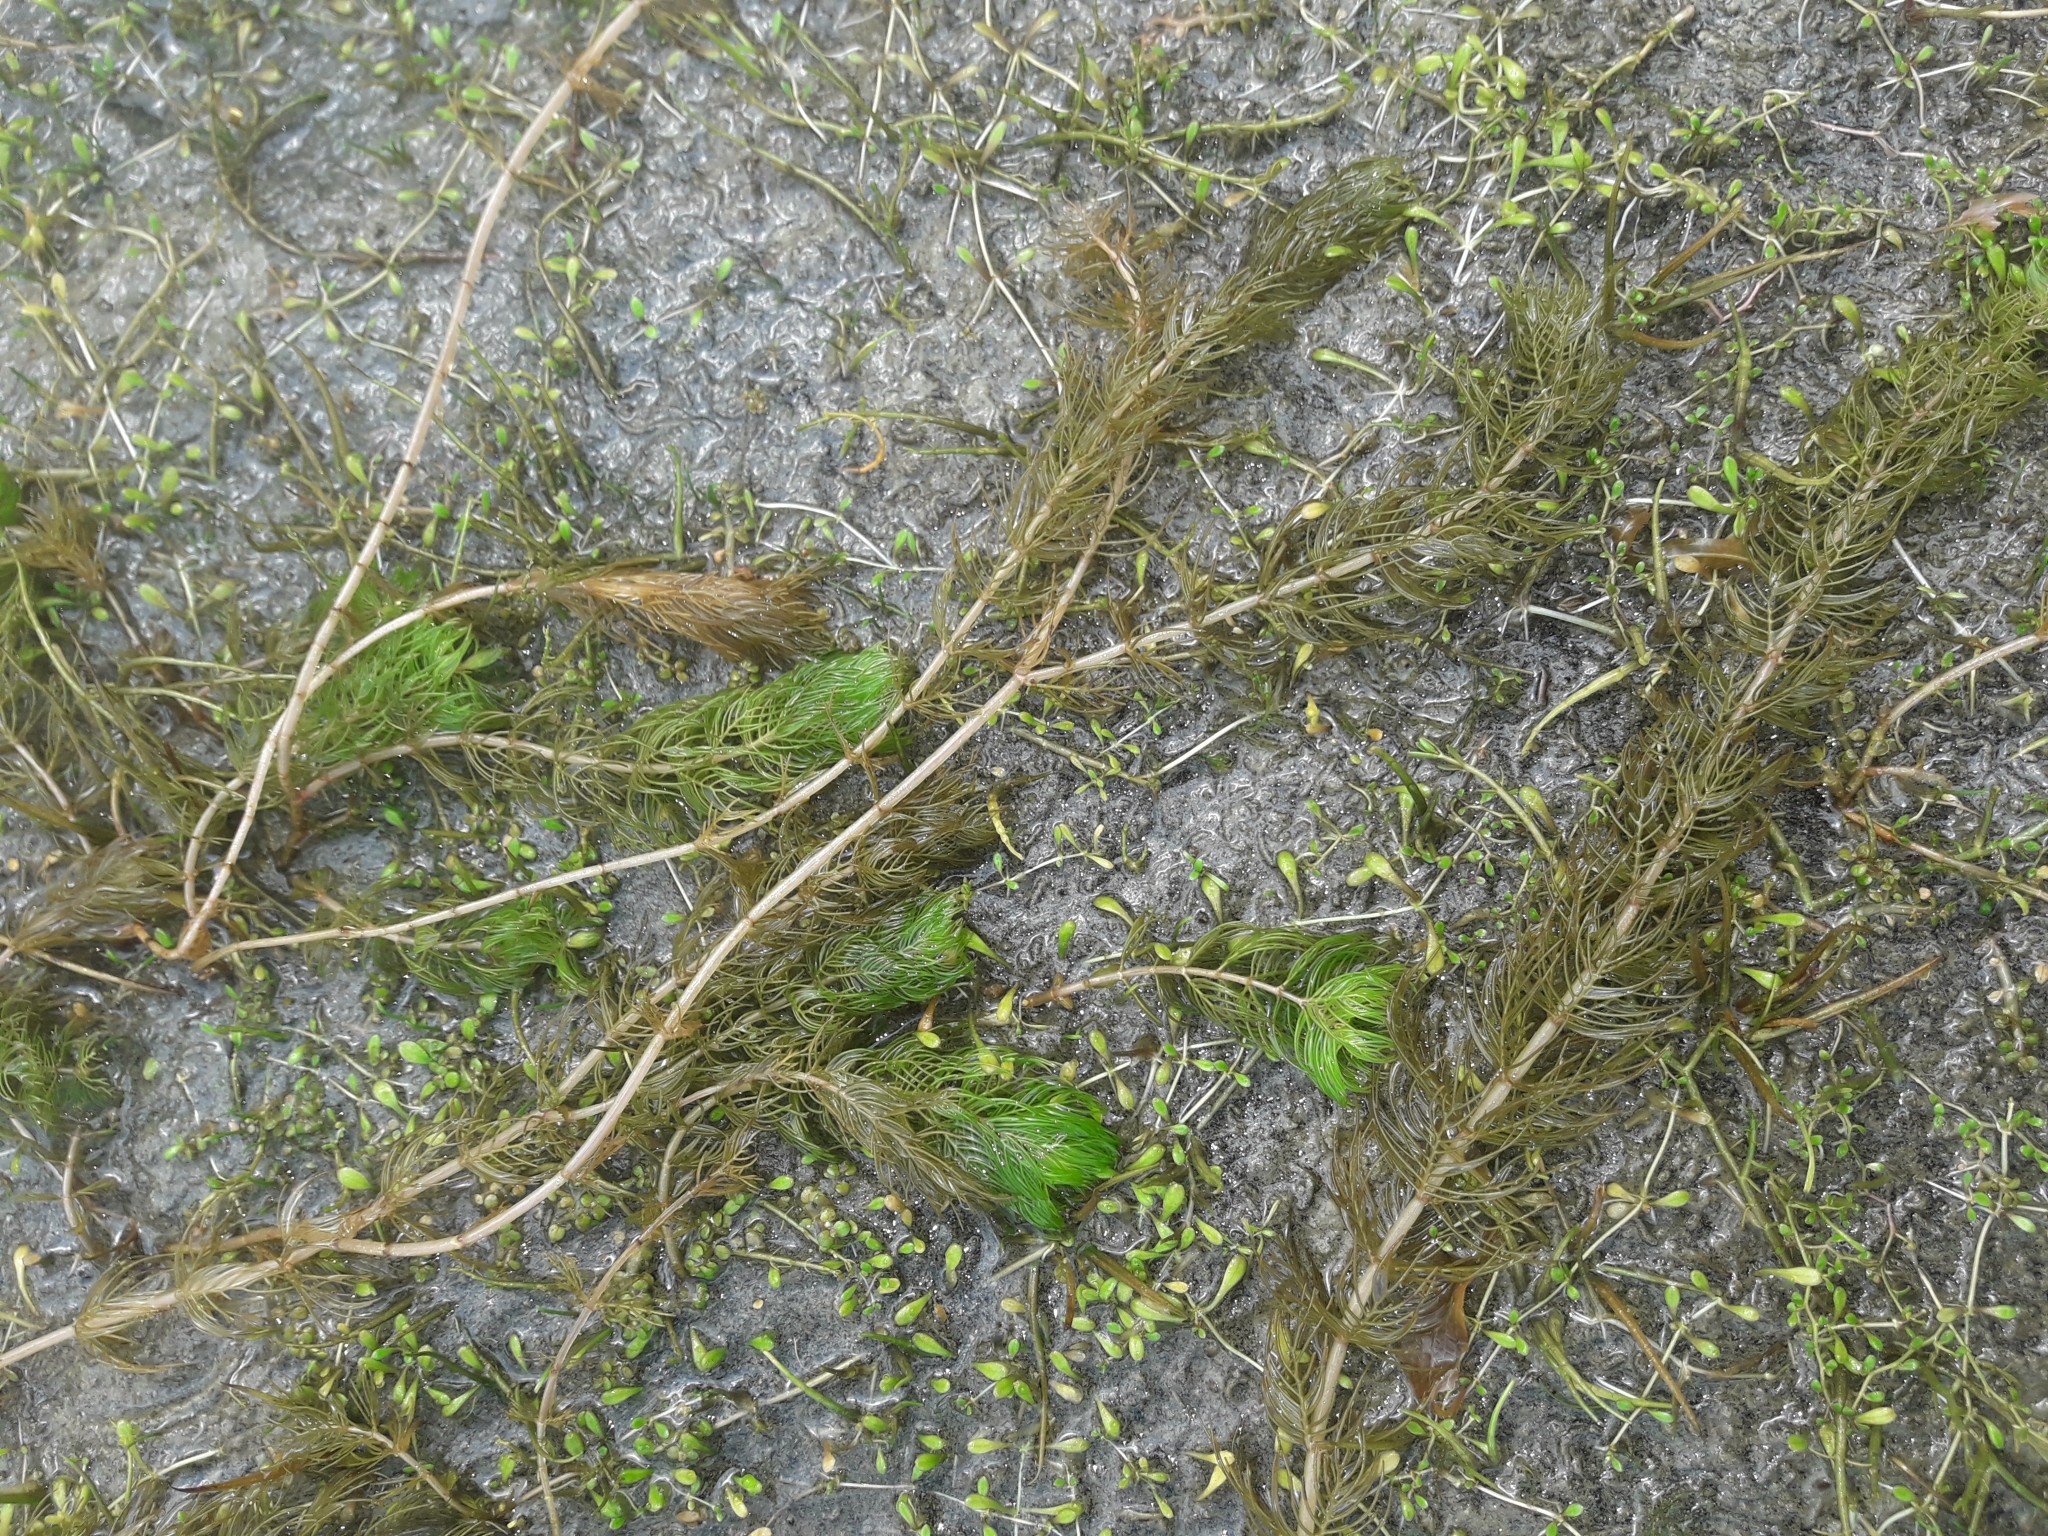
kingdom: Plantae
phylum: Tracheophyta
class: Magnoliopsida
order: Saxifragales
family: Haloragaceae
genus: Myriophyllum
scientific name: Myriophyllum propinquum
